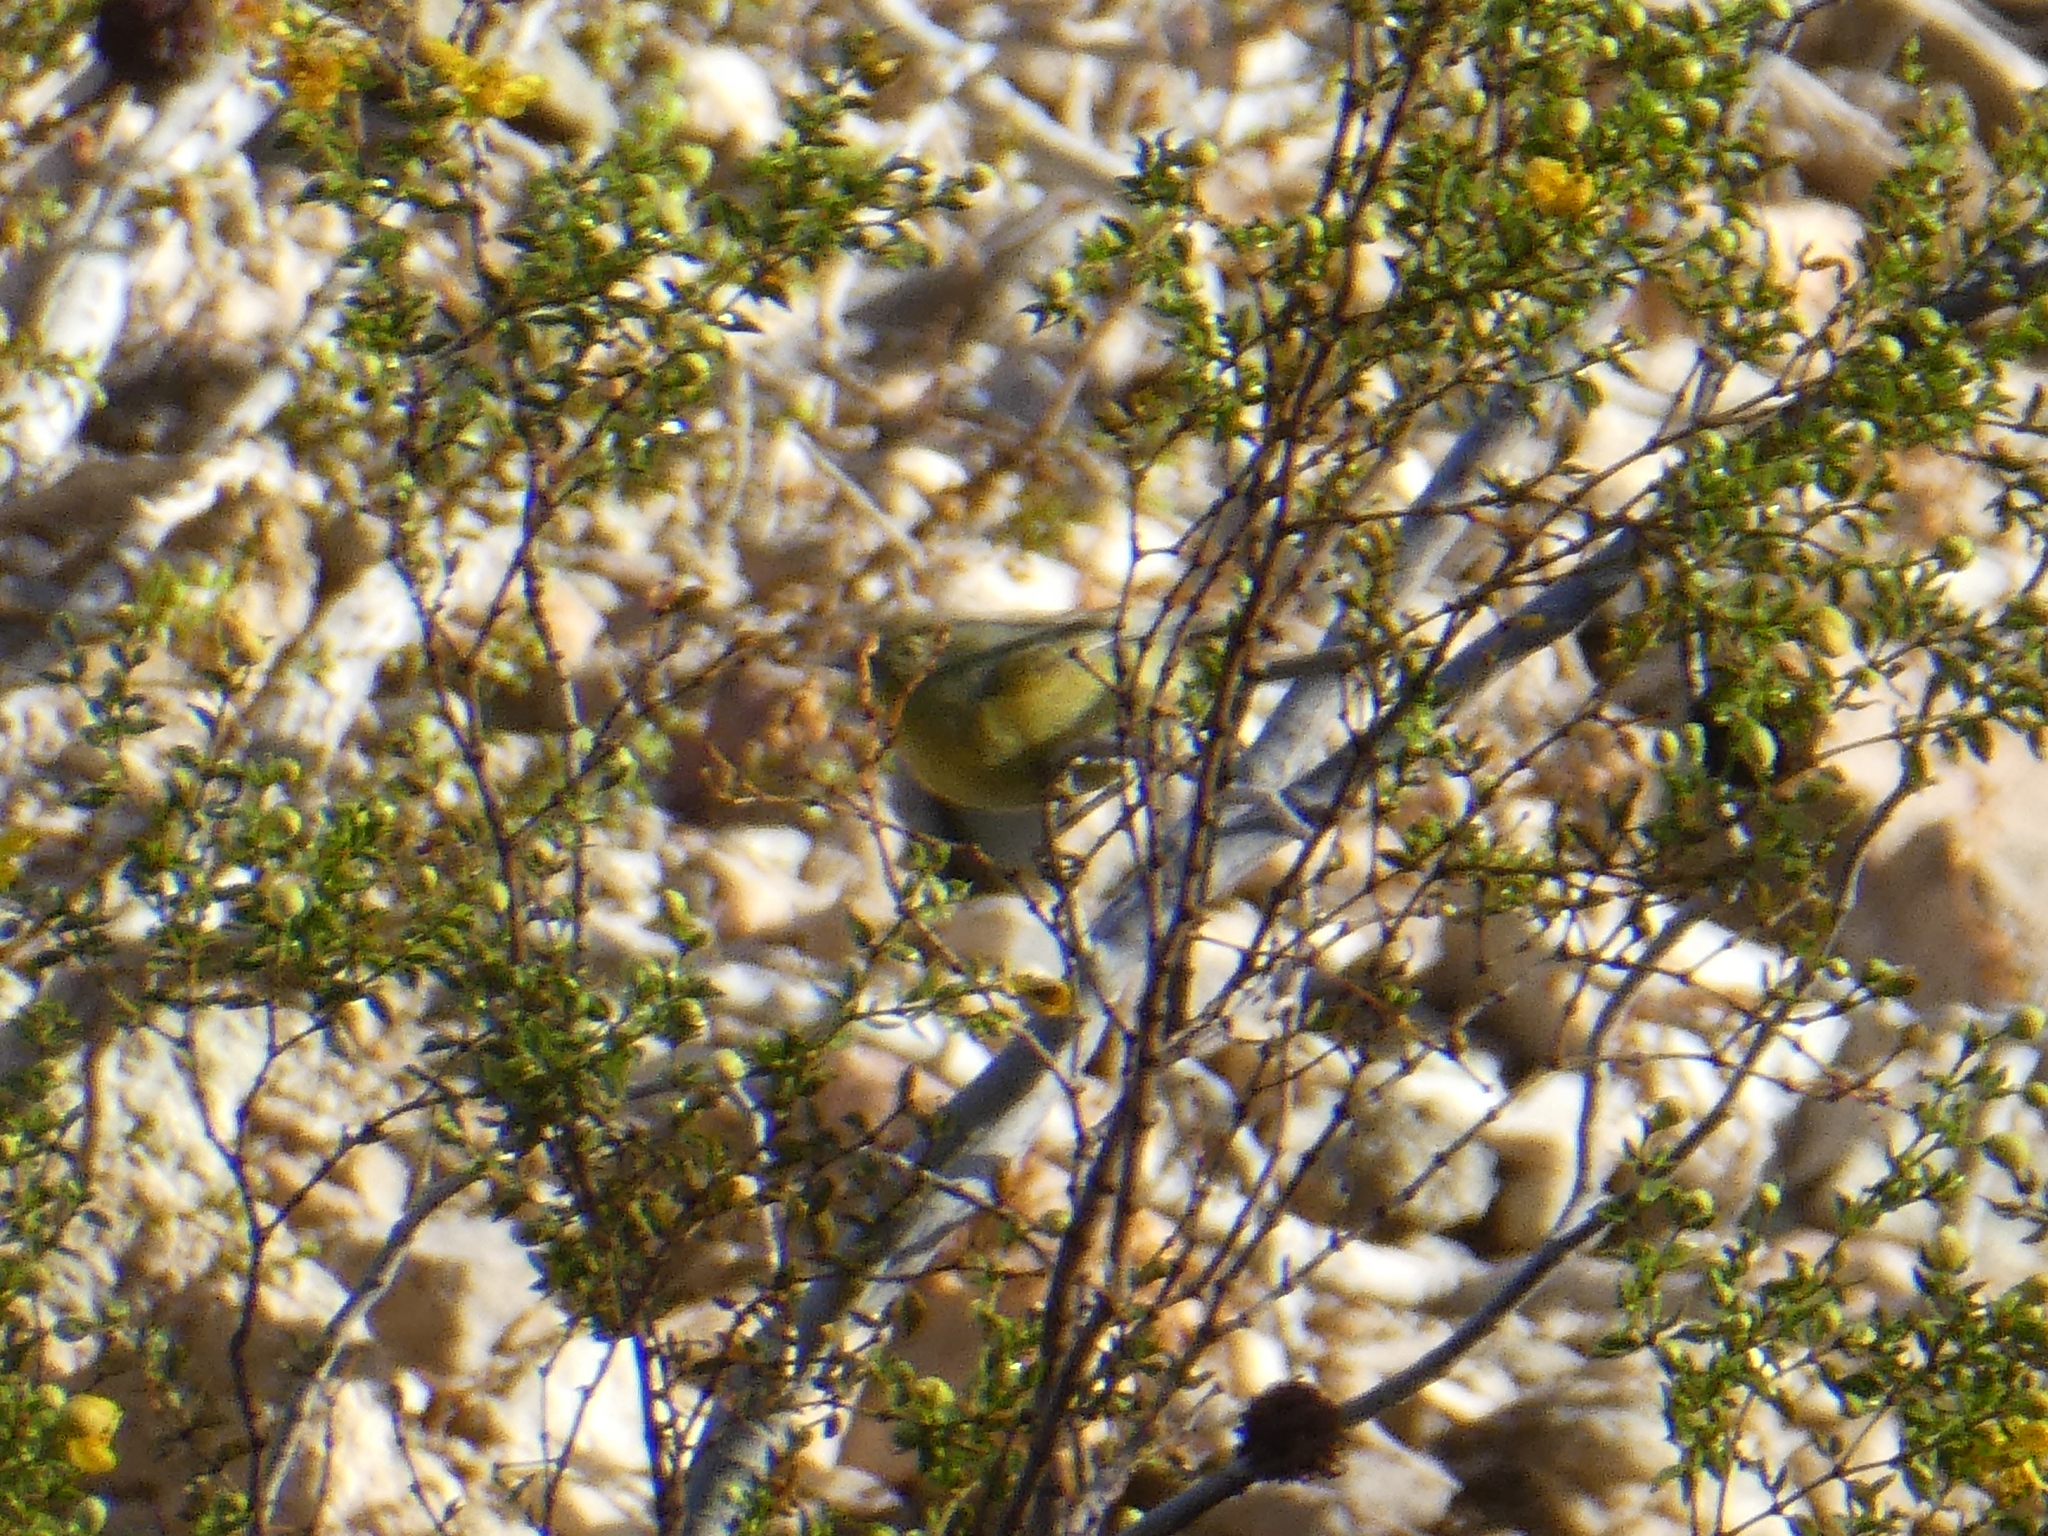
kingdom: Animalia
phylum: Chordata
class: Aves
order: Passeriformes
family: Parulidae
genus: Leiothlypis
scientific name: Leiothlypis celata
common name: Orange-crowned warbler
